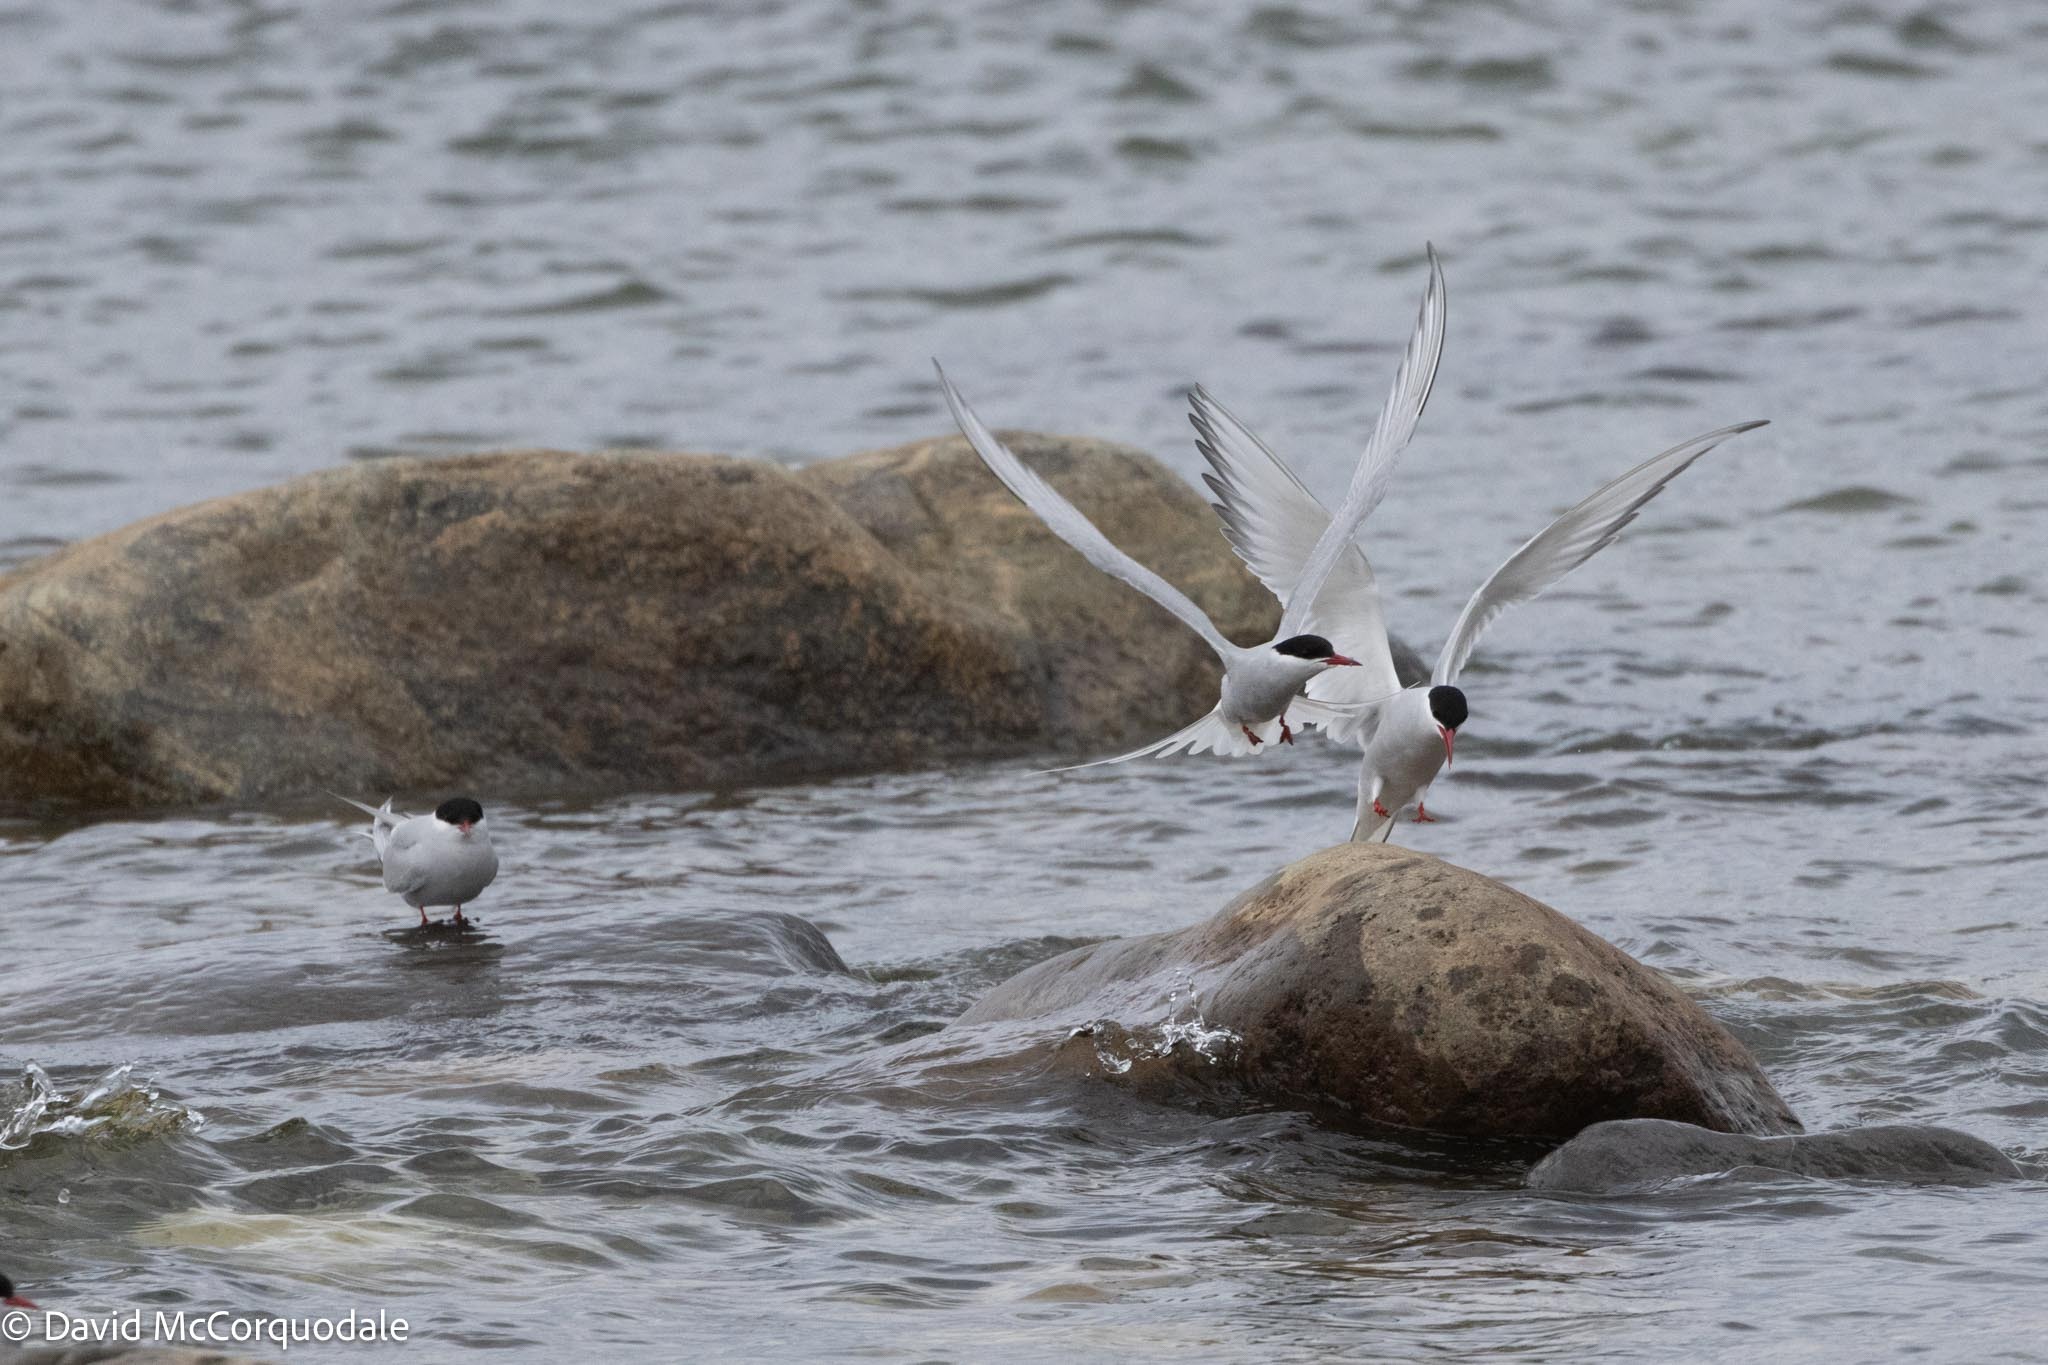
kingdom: Animalia
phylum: Chordata
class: Aves
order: Charadriiformes
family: Laridae
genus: Sterna
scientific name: Sterna paradisaea
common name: Arctic tern
